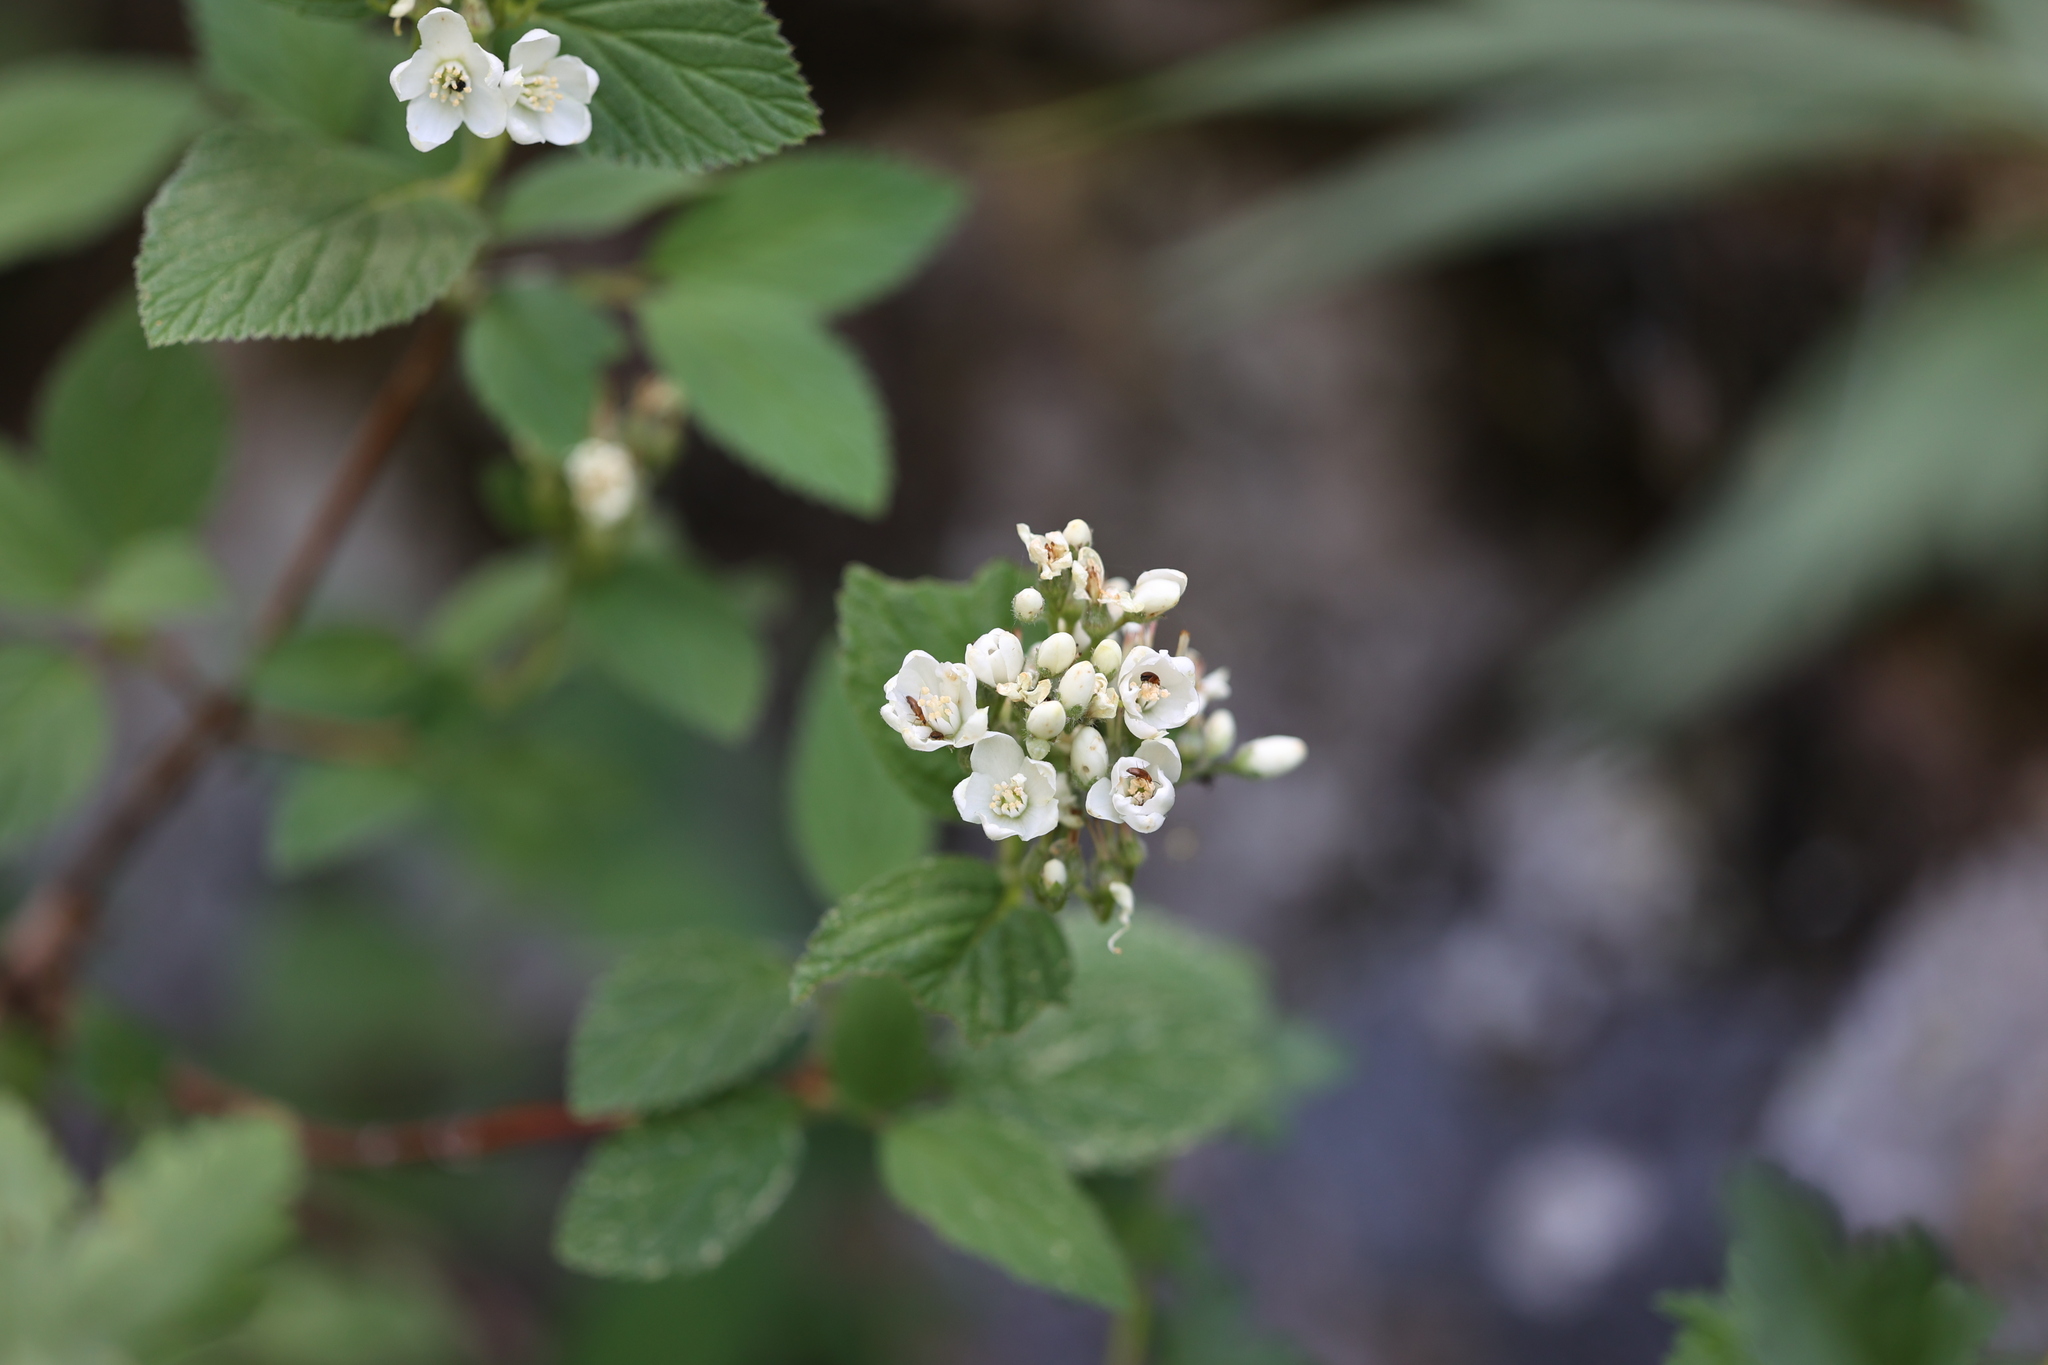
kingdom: Plantae
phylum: Tracheophyta
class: Magnoliopsida
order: Cornales
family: Hydrangeaceae
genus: Jamesia
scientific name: Jamesia americana
